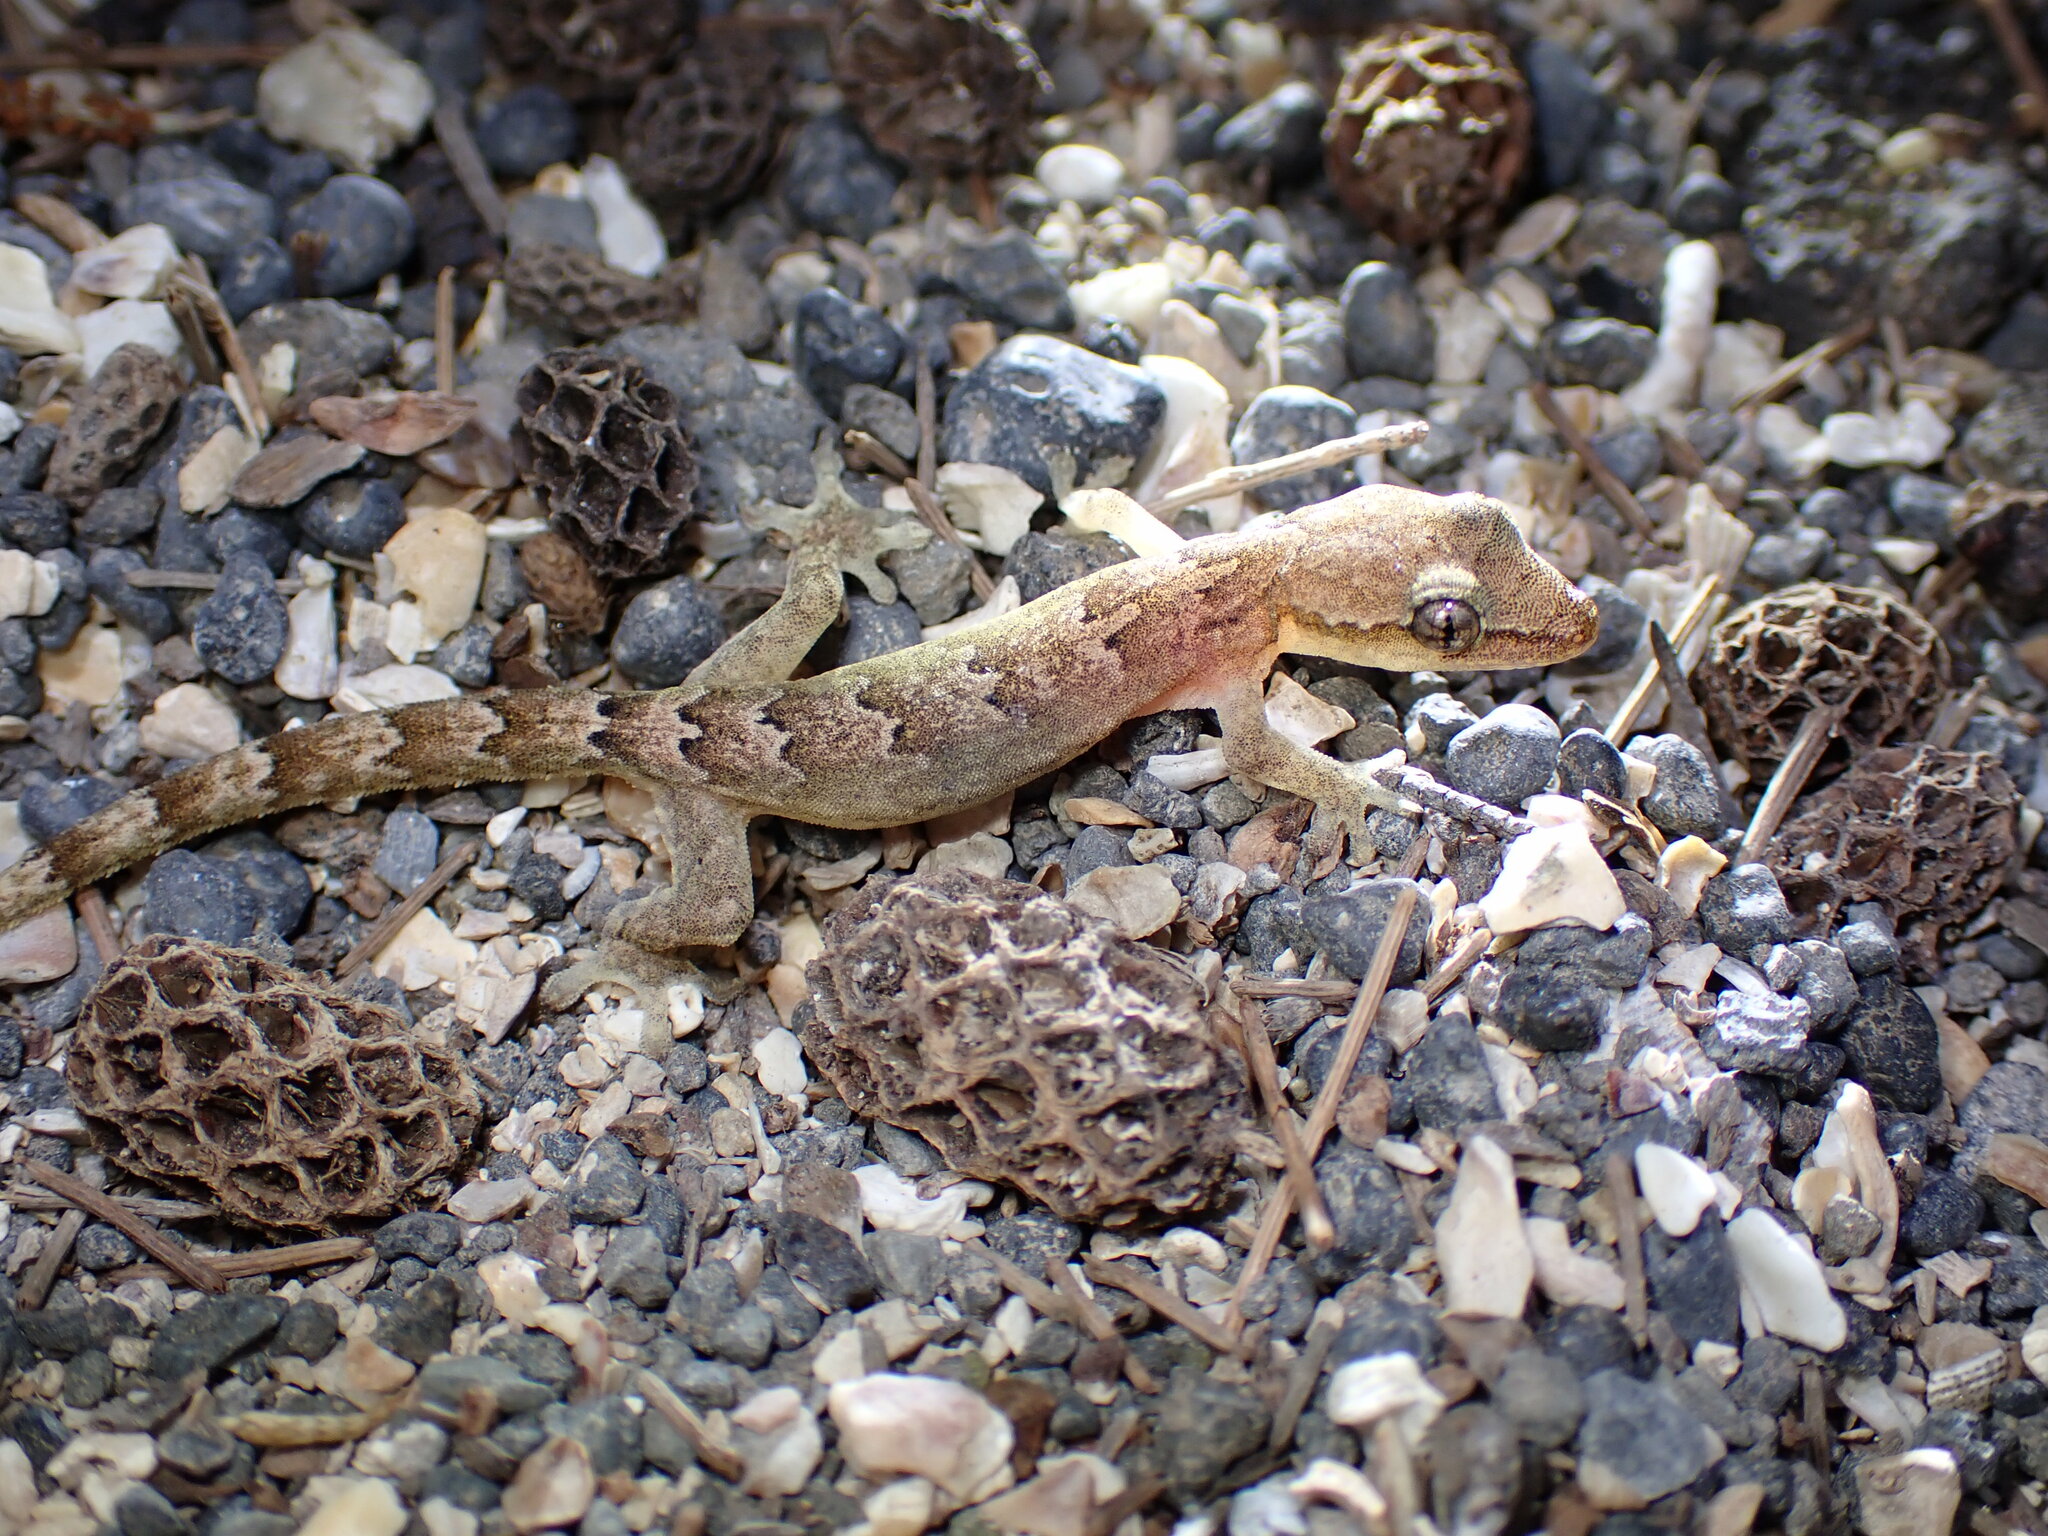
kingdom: Animalia
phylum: Chordata
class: Squamata
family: Gekkonidae
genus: Lepidodactylus
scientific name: Lepidodactylus lugubris
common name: Mourning gecko
